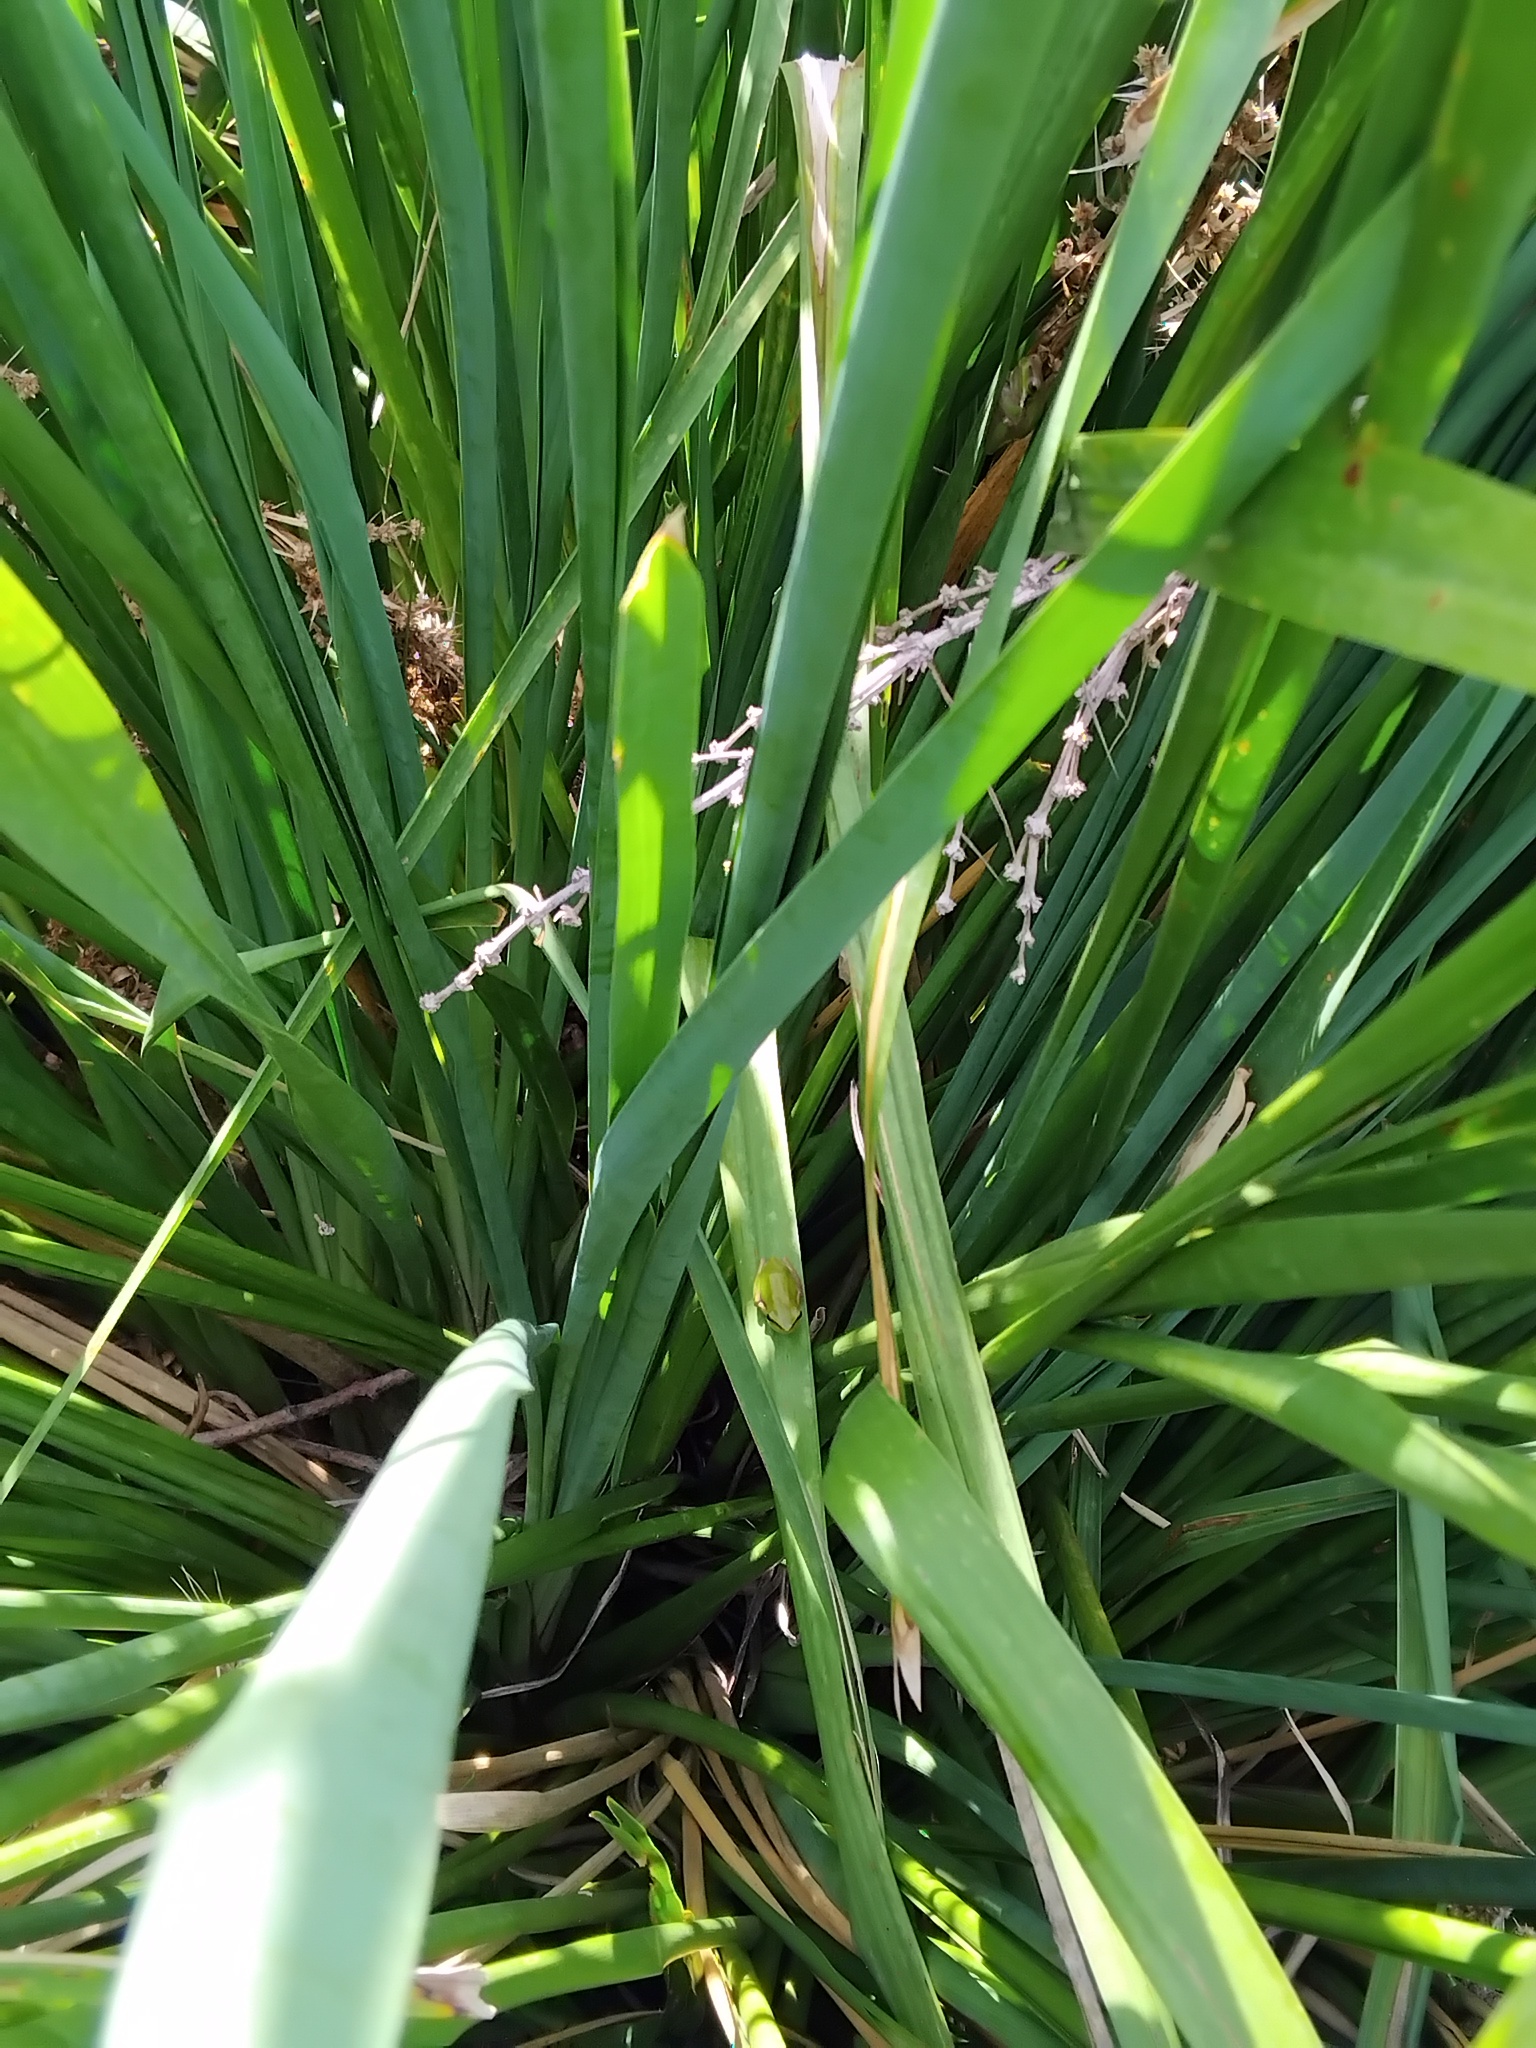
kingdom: Animalia
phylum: Chordata
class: Amphibia
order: Anura
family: Pelodryadidae
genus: Litoria
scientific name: Litoria fallax
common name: Eastern dwarf treefrog
